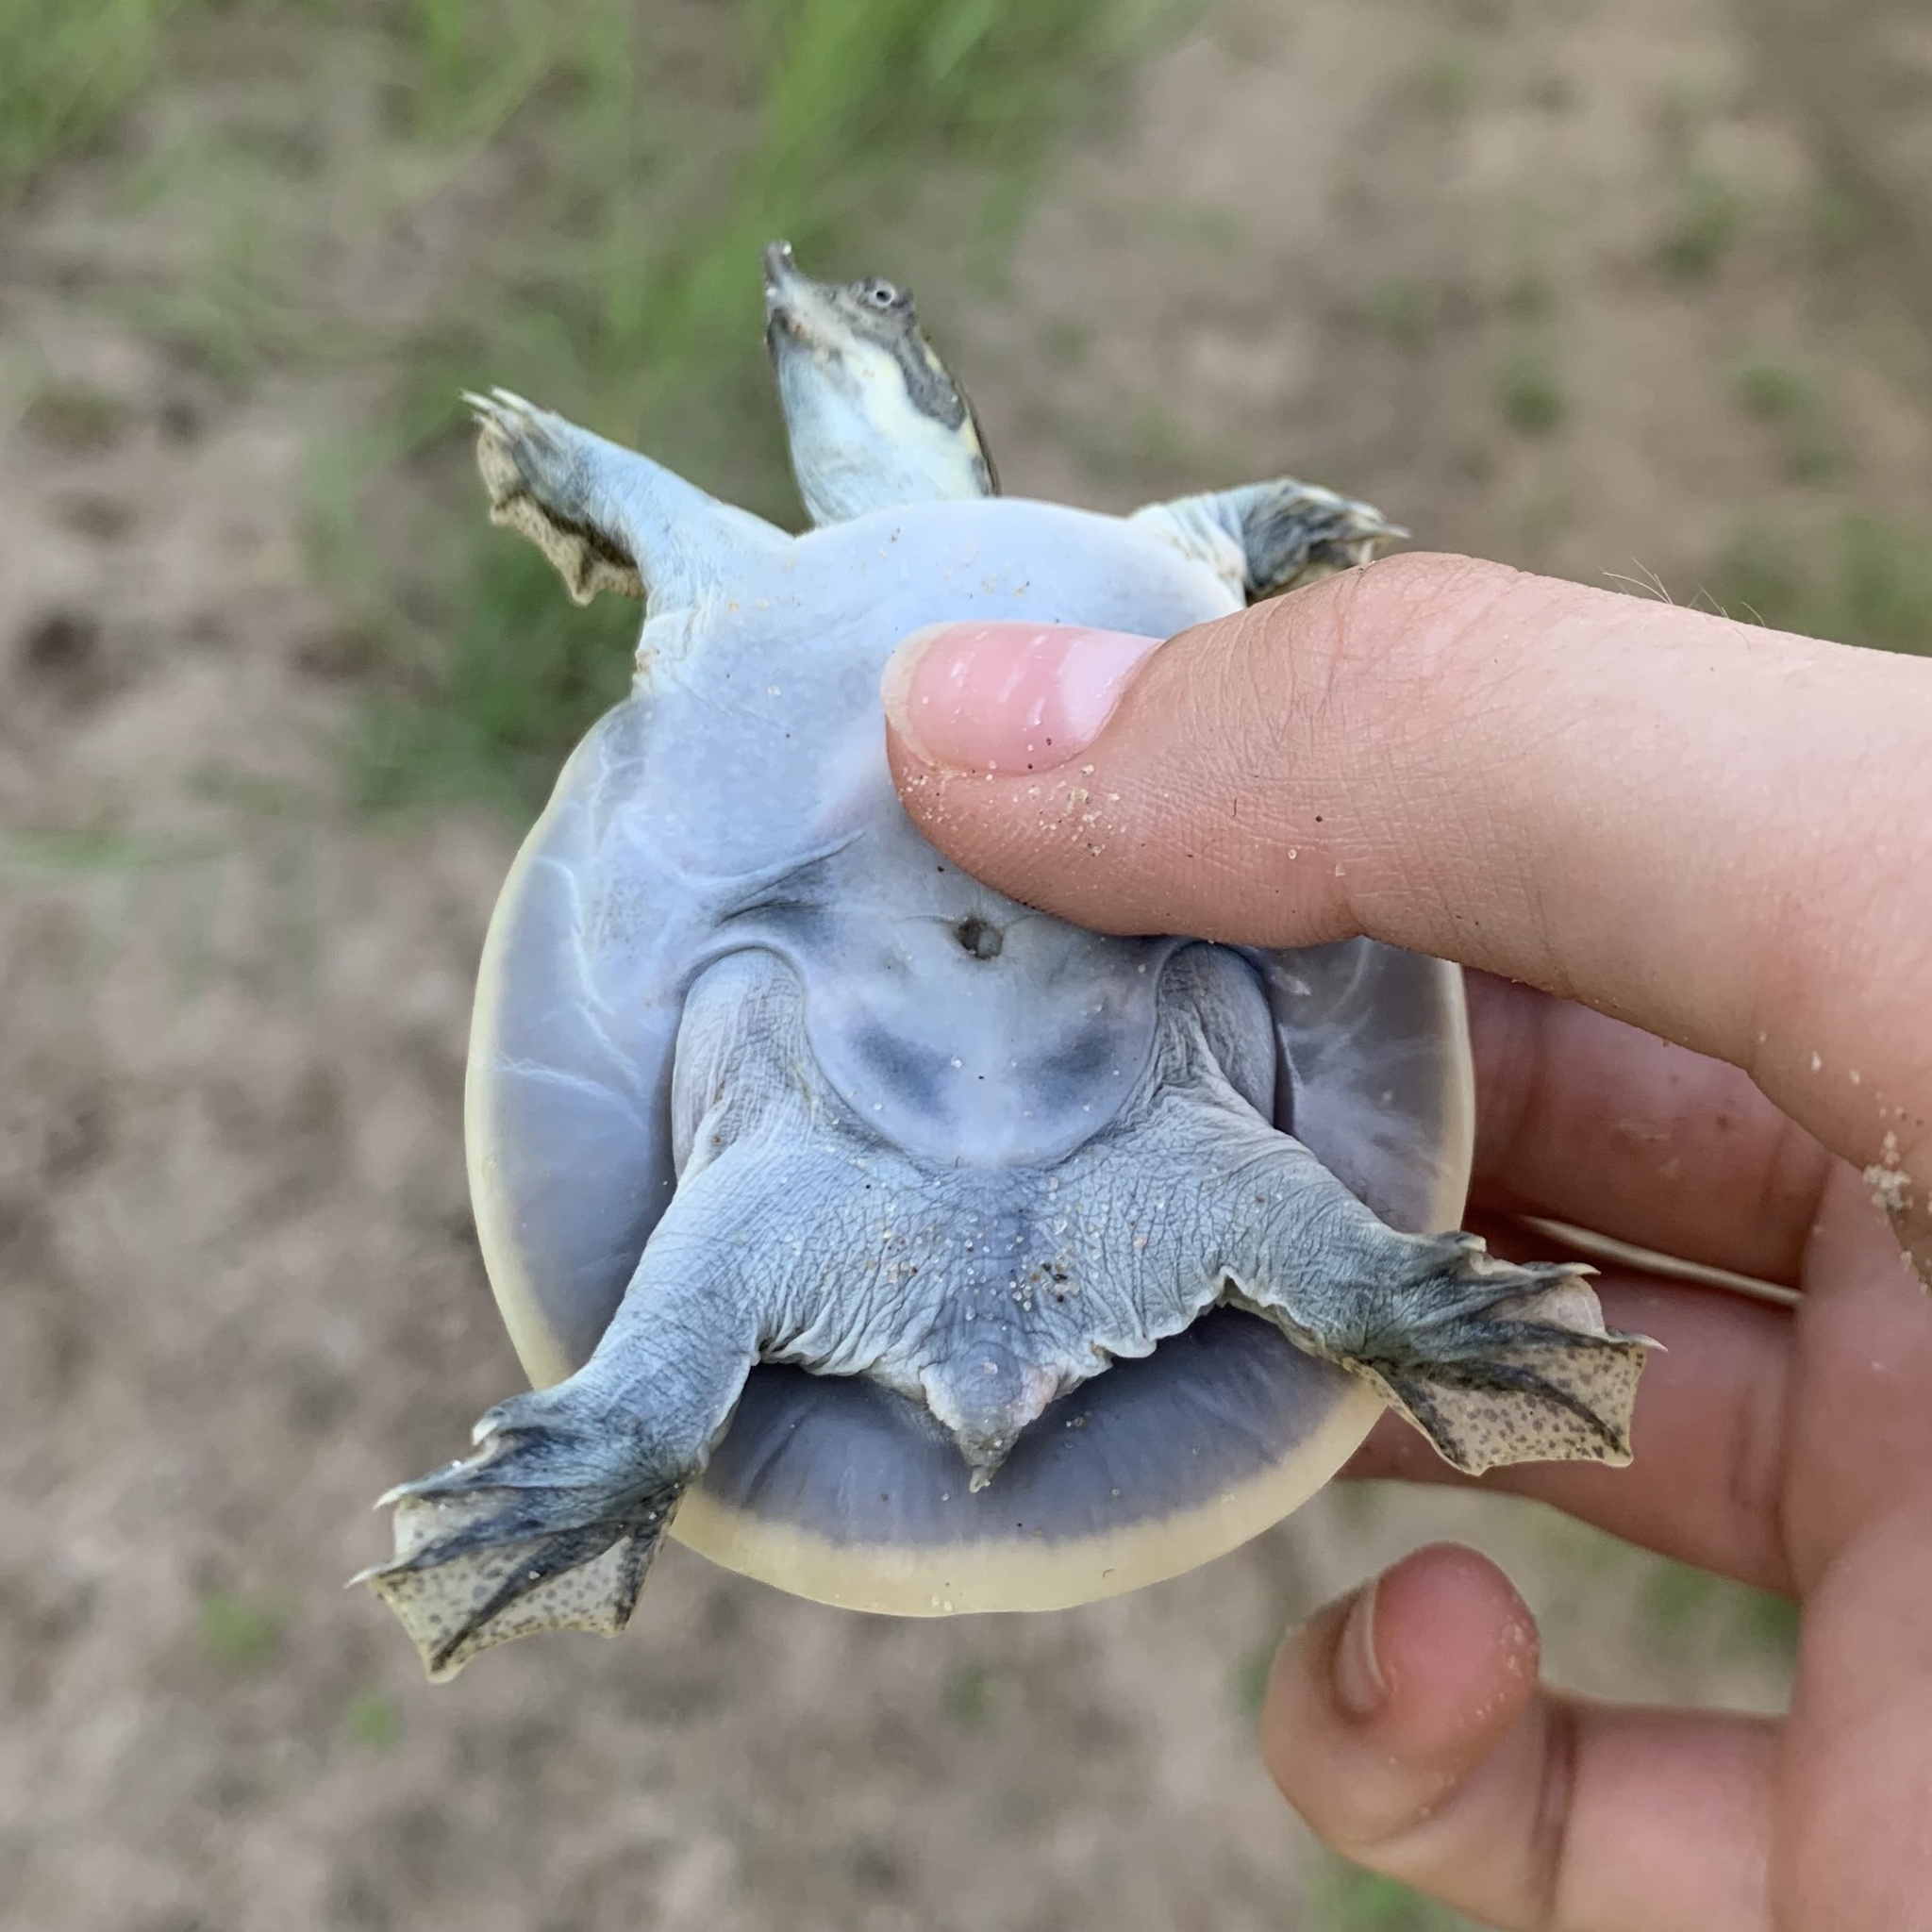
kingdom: Animalia
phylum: Chordata
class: Testudines
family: Trionychidae
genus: Apalone
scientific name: Apalone spinifera
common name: Spiny softshell turtle
